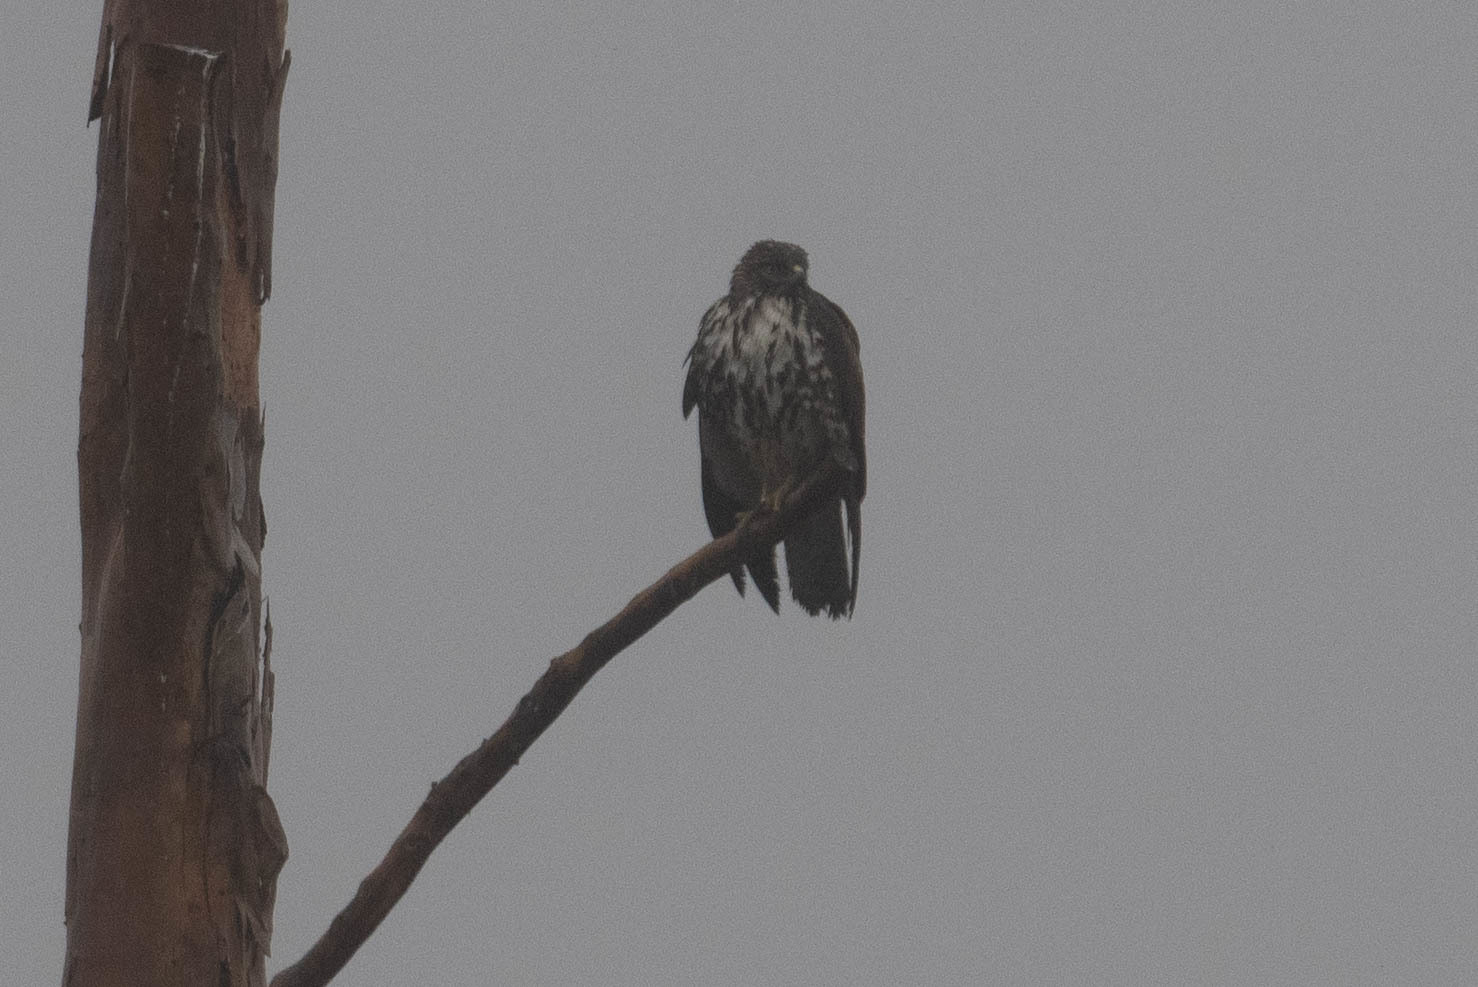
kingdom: Animalia
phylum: Chordata
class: Aves
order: Accipitriformes
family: Accipitridae
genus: Buteo
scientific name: Buteo jamaicensis
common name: Red-tailed hawk
